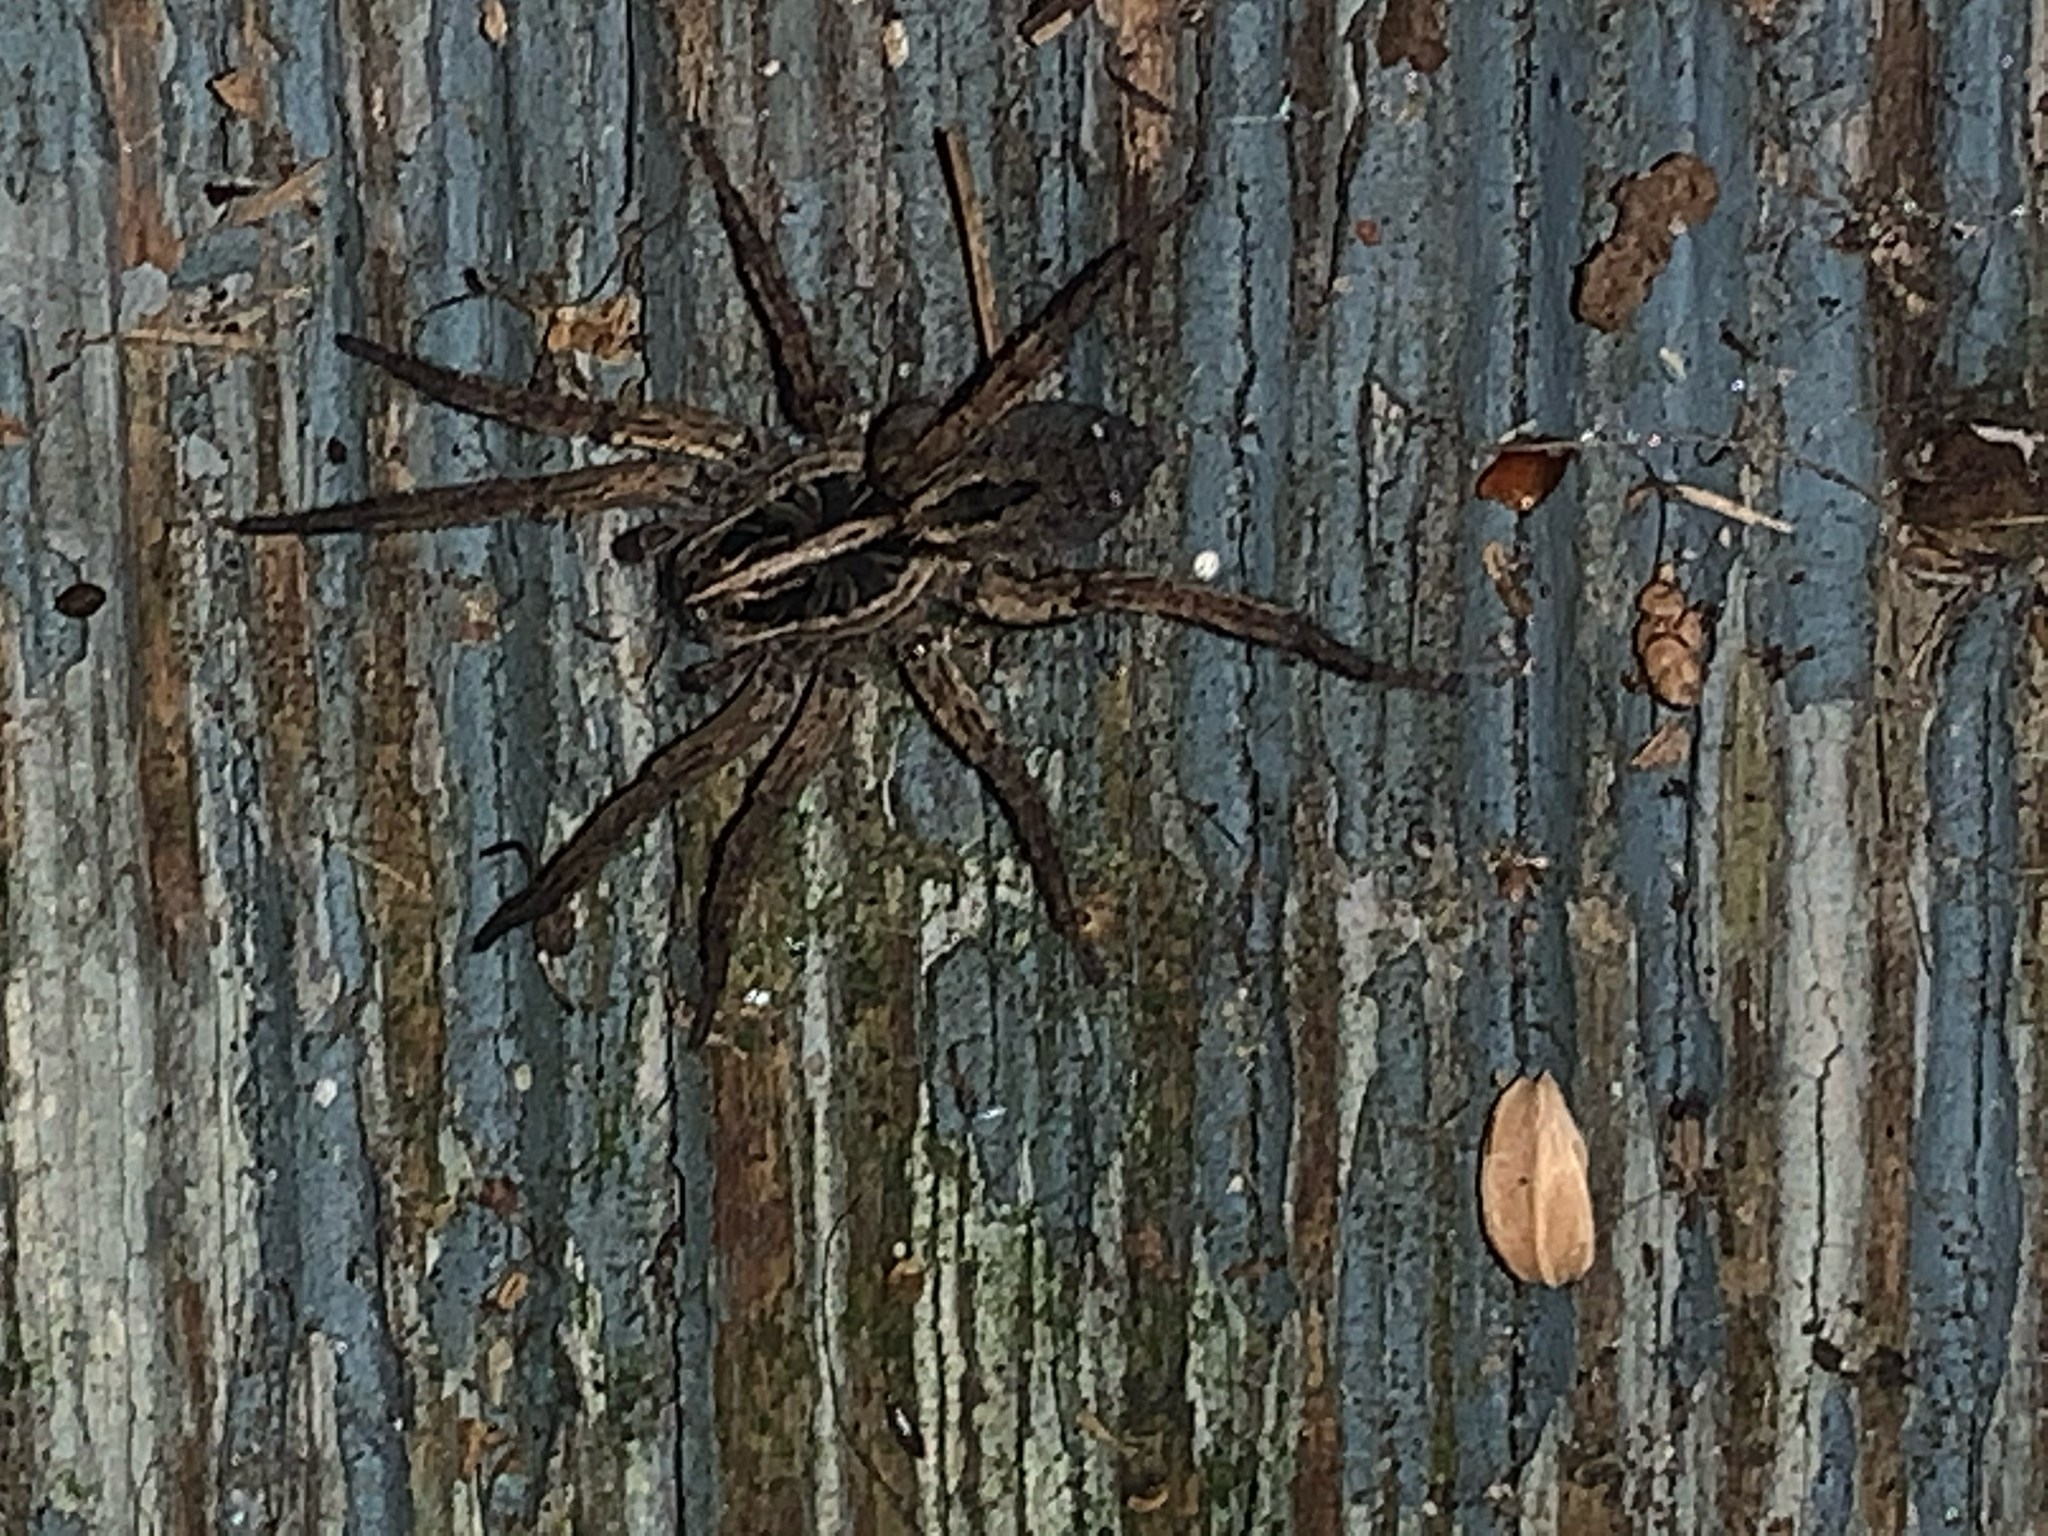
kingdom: Animalia
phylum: Arthropoda
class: Arachnida
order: Araneae
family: Lycosidae
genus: Tigrosa
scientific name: Tigrosa annexa
